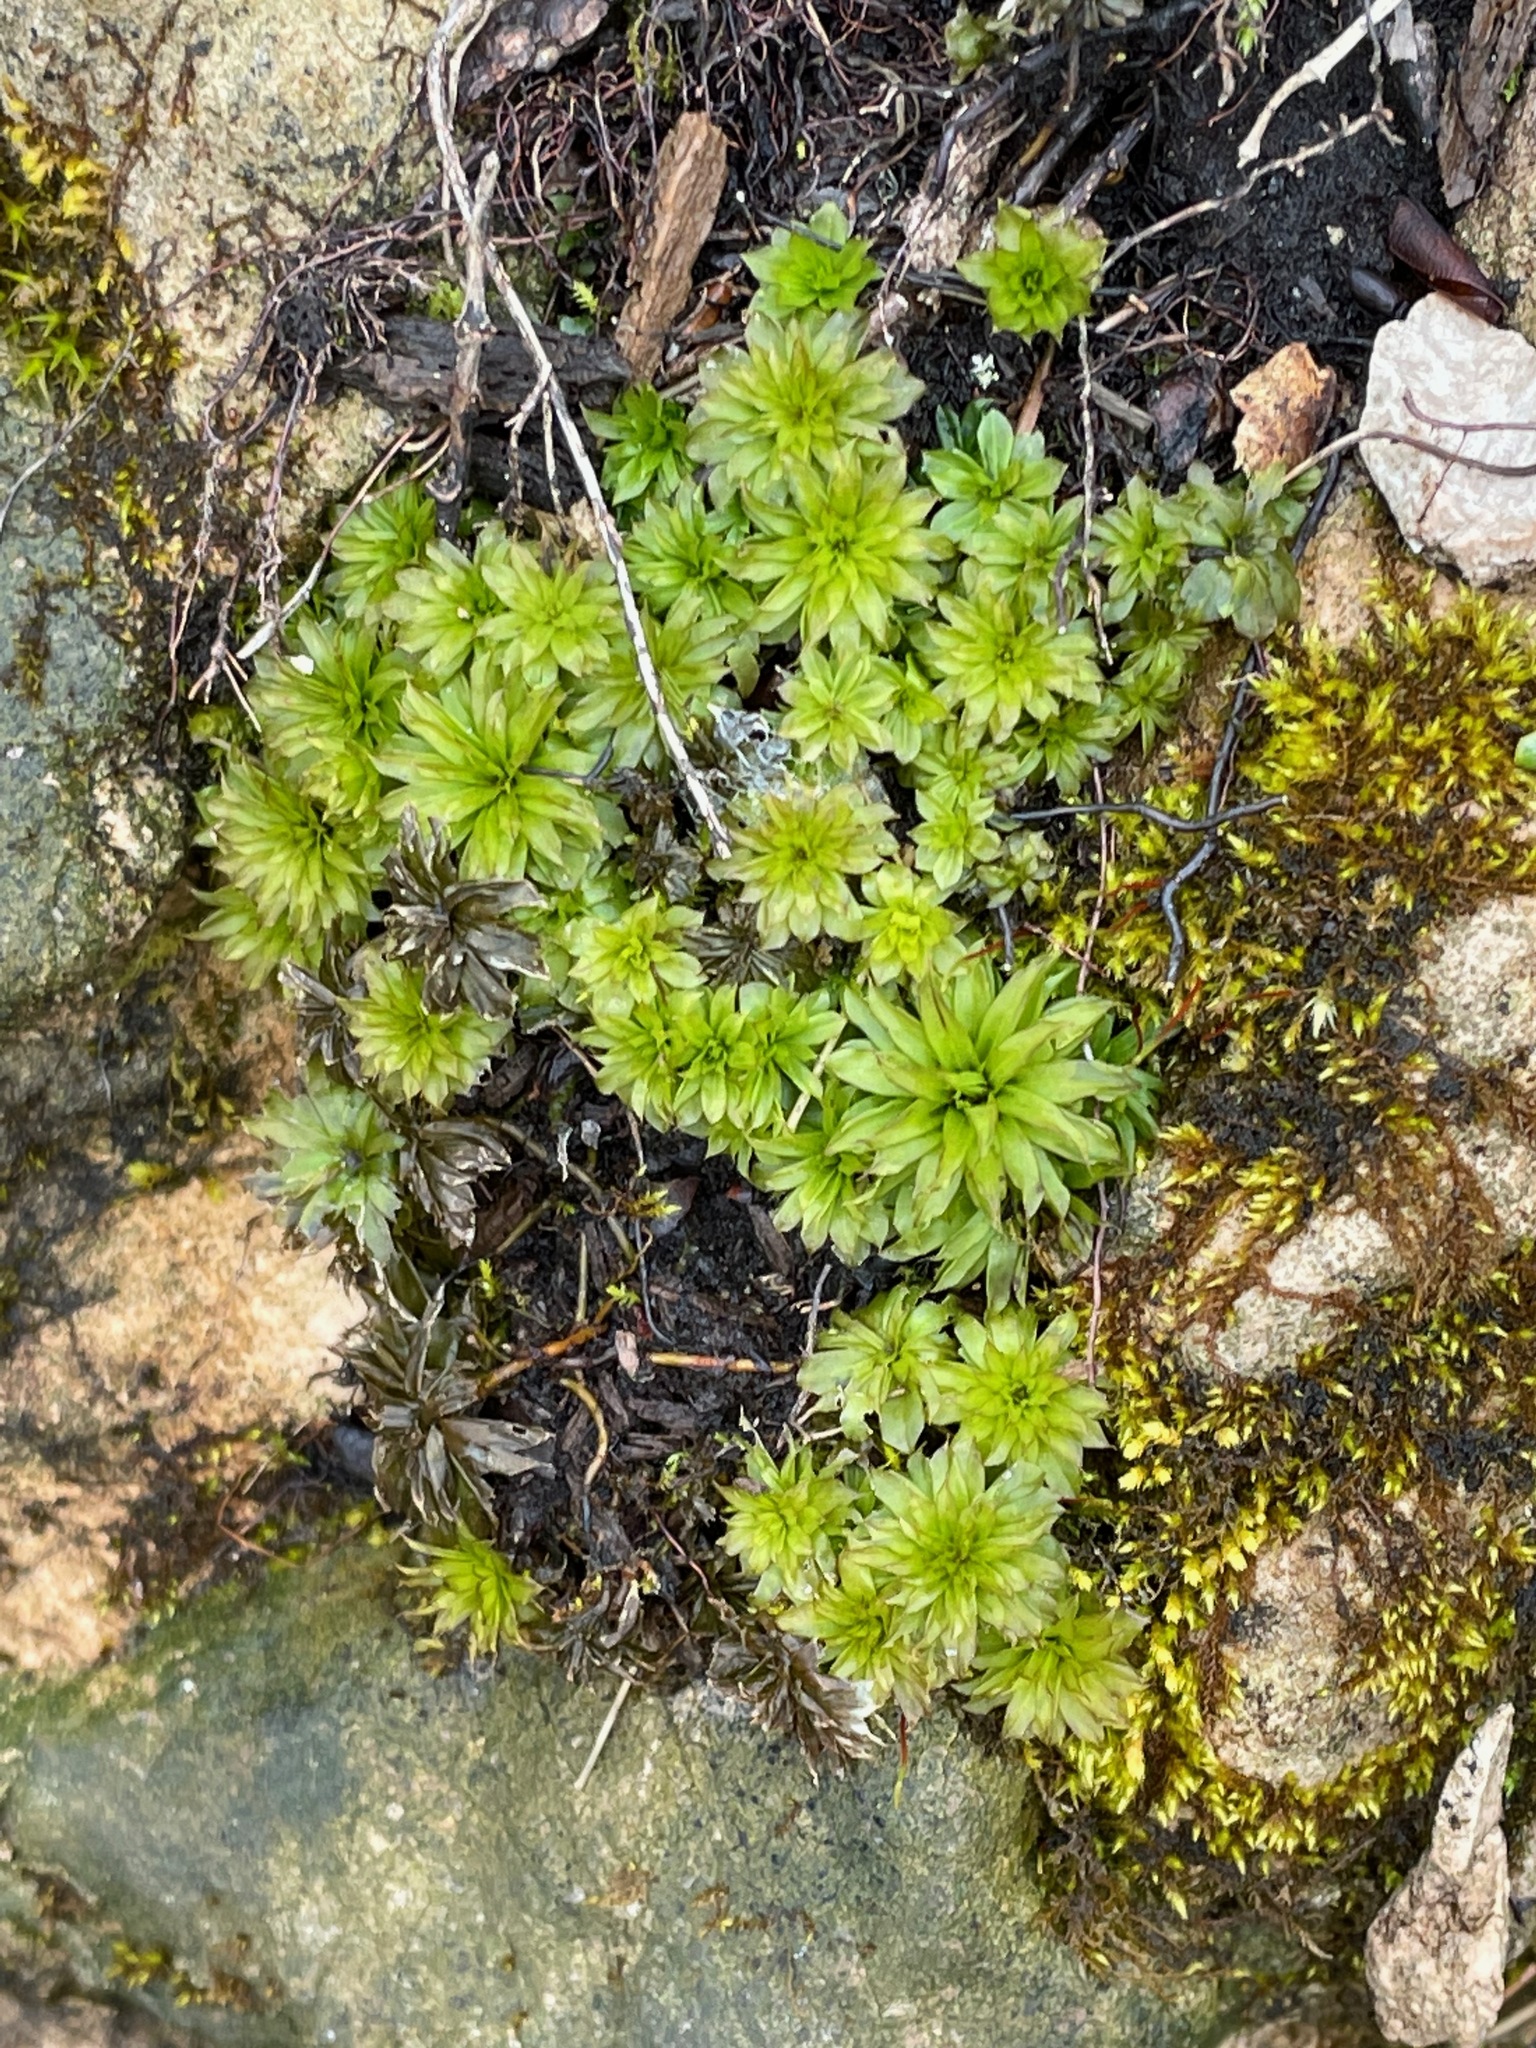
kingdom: Plantae
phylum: Bryophyta
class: Bryopsida
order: Bryales
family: Bryaceae
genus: Rhodobryum
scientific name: Rhodobryum ontariense
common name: Ontario rhodobryum moss
